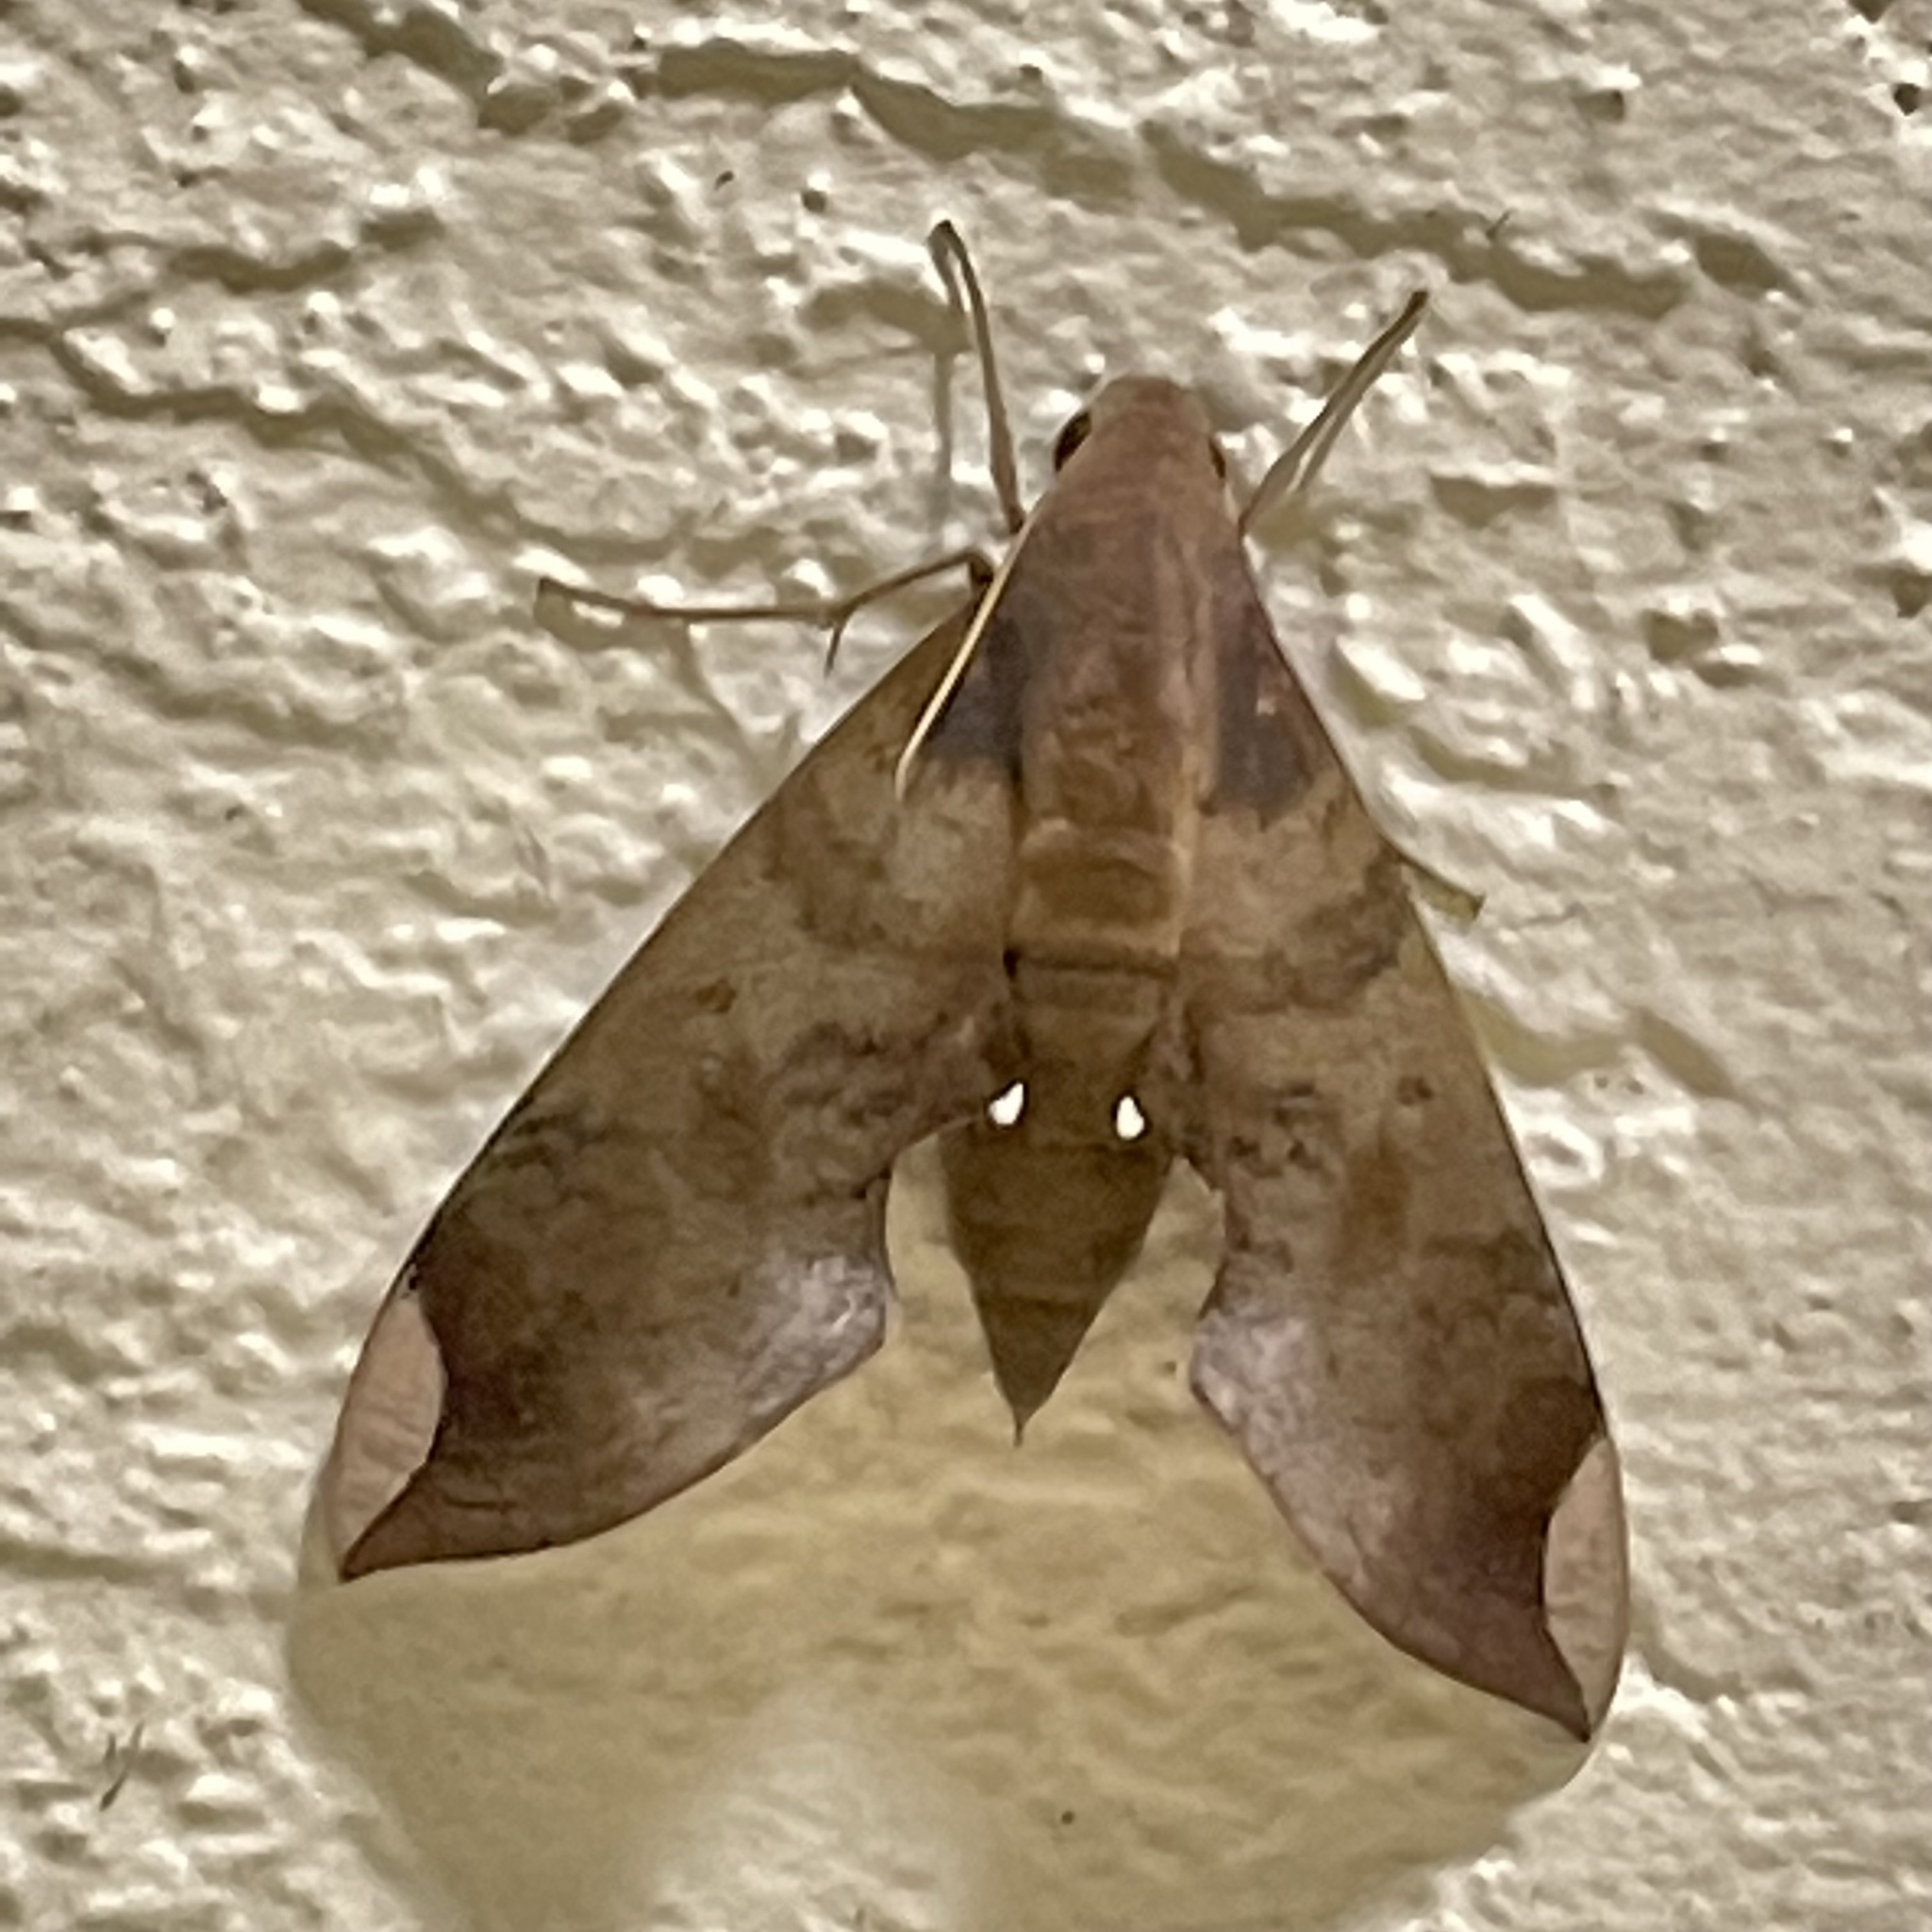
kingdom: Animalia
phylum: Arthropoda
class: Insecta
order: Lepidoptera
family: Sphingidae
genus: Pachylia
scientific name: Pachylia ficus
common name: Fig sphinx
